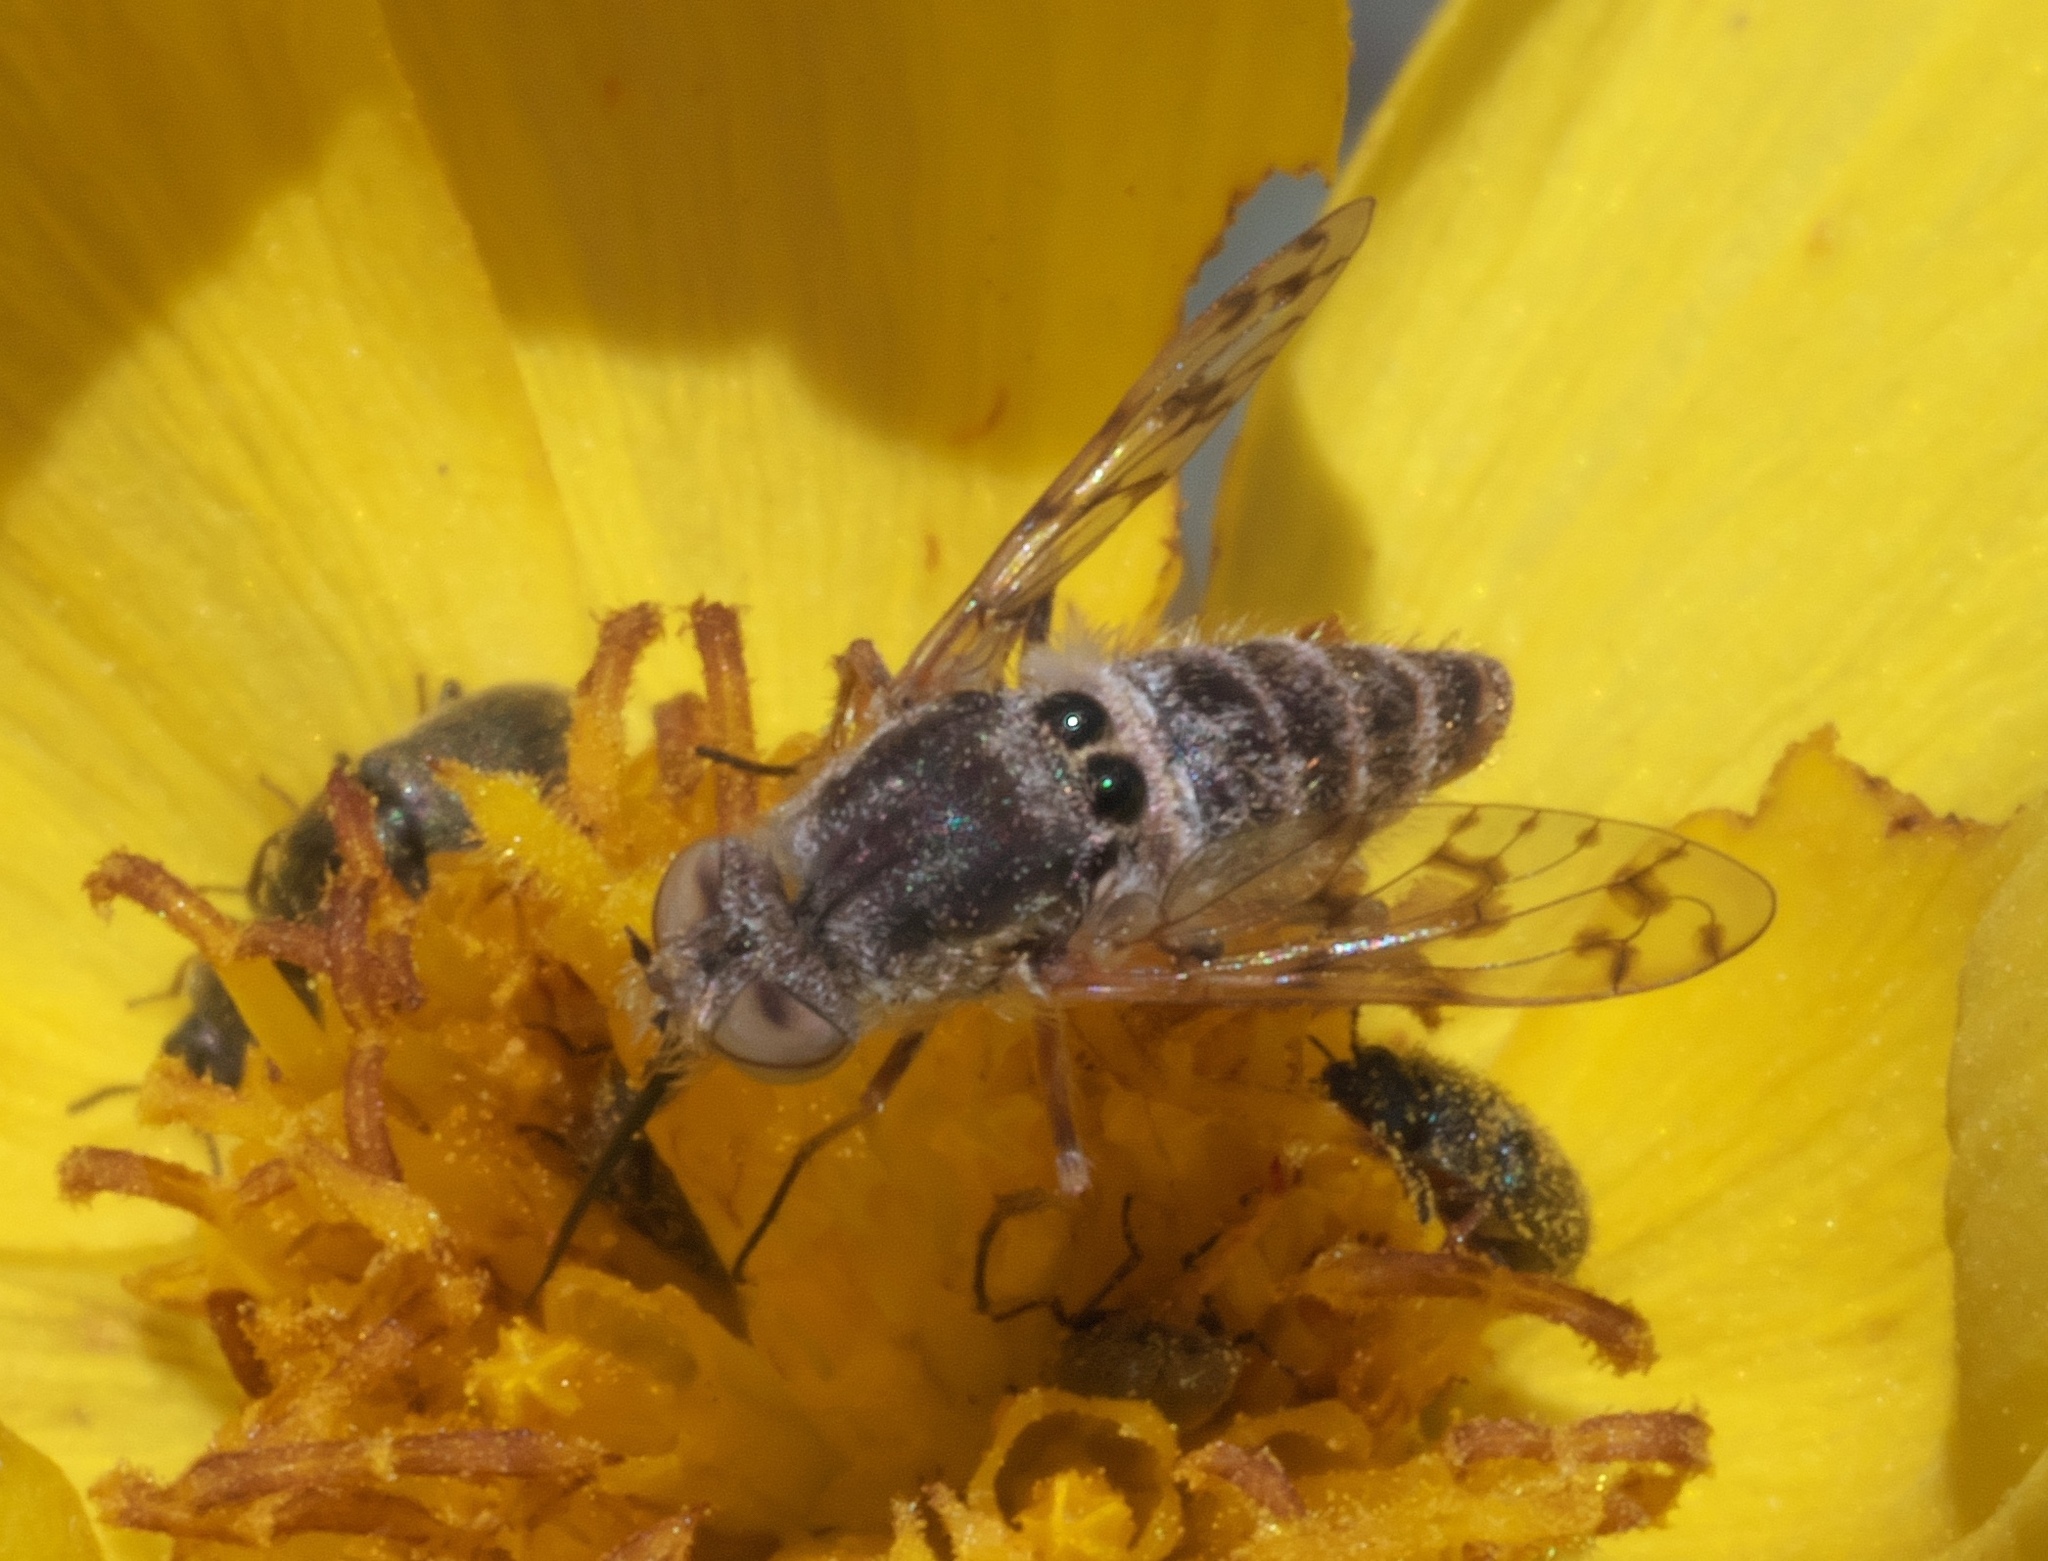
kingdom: Animalia
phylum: Arthropoda
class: Insecta
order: Diptera
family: Bombyliidae
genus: Geminaria
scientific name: Geminaria canalis
